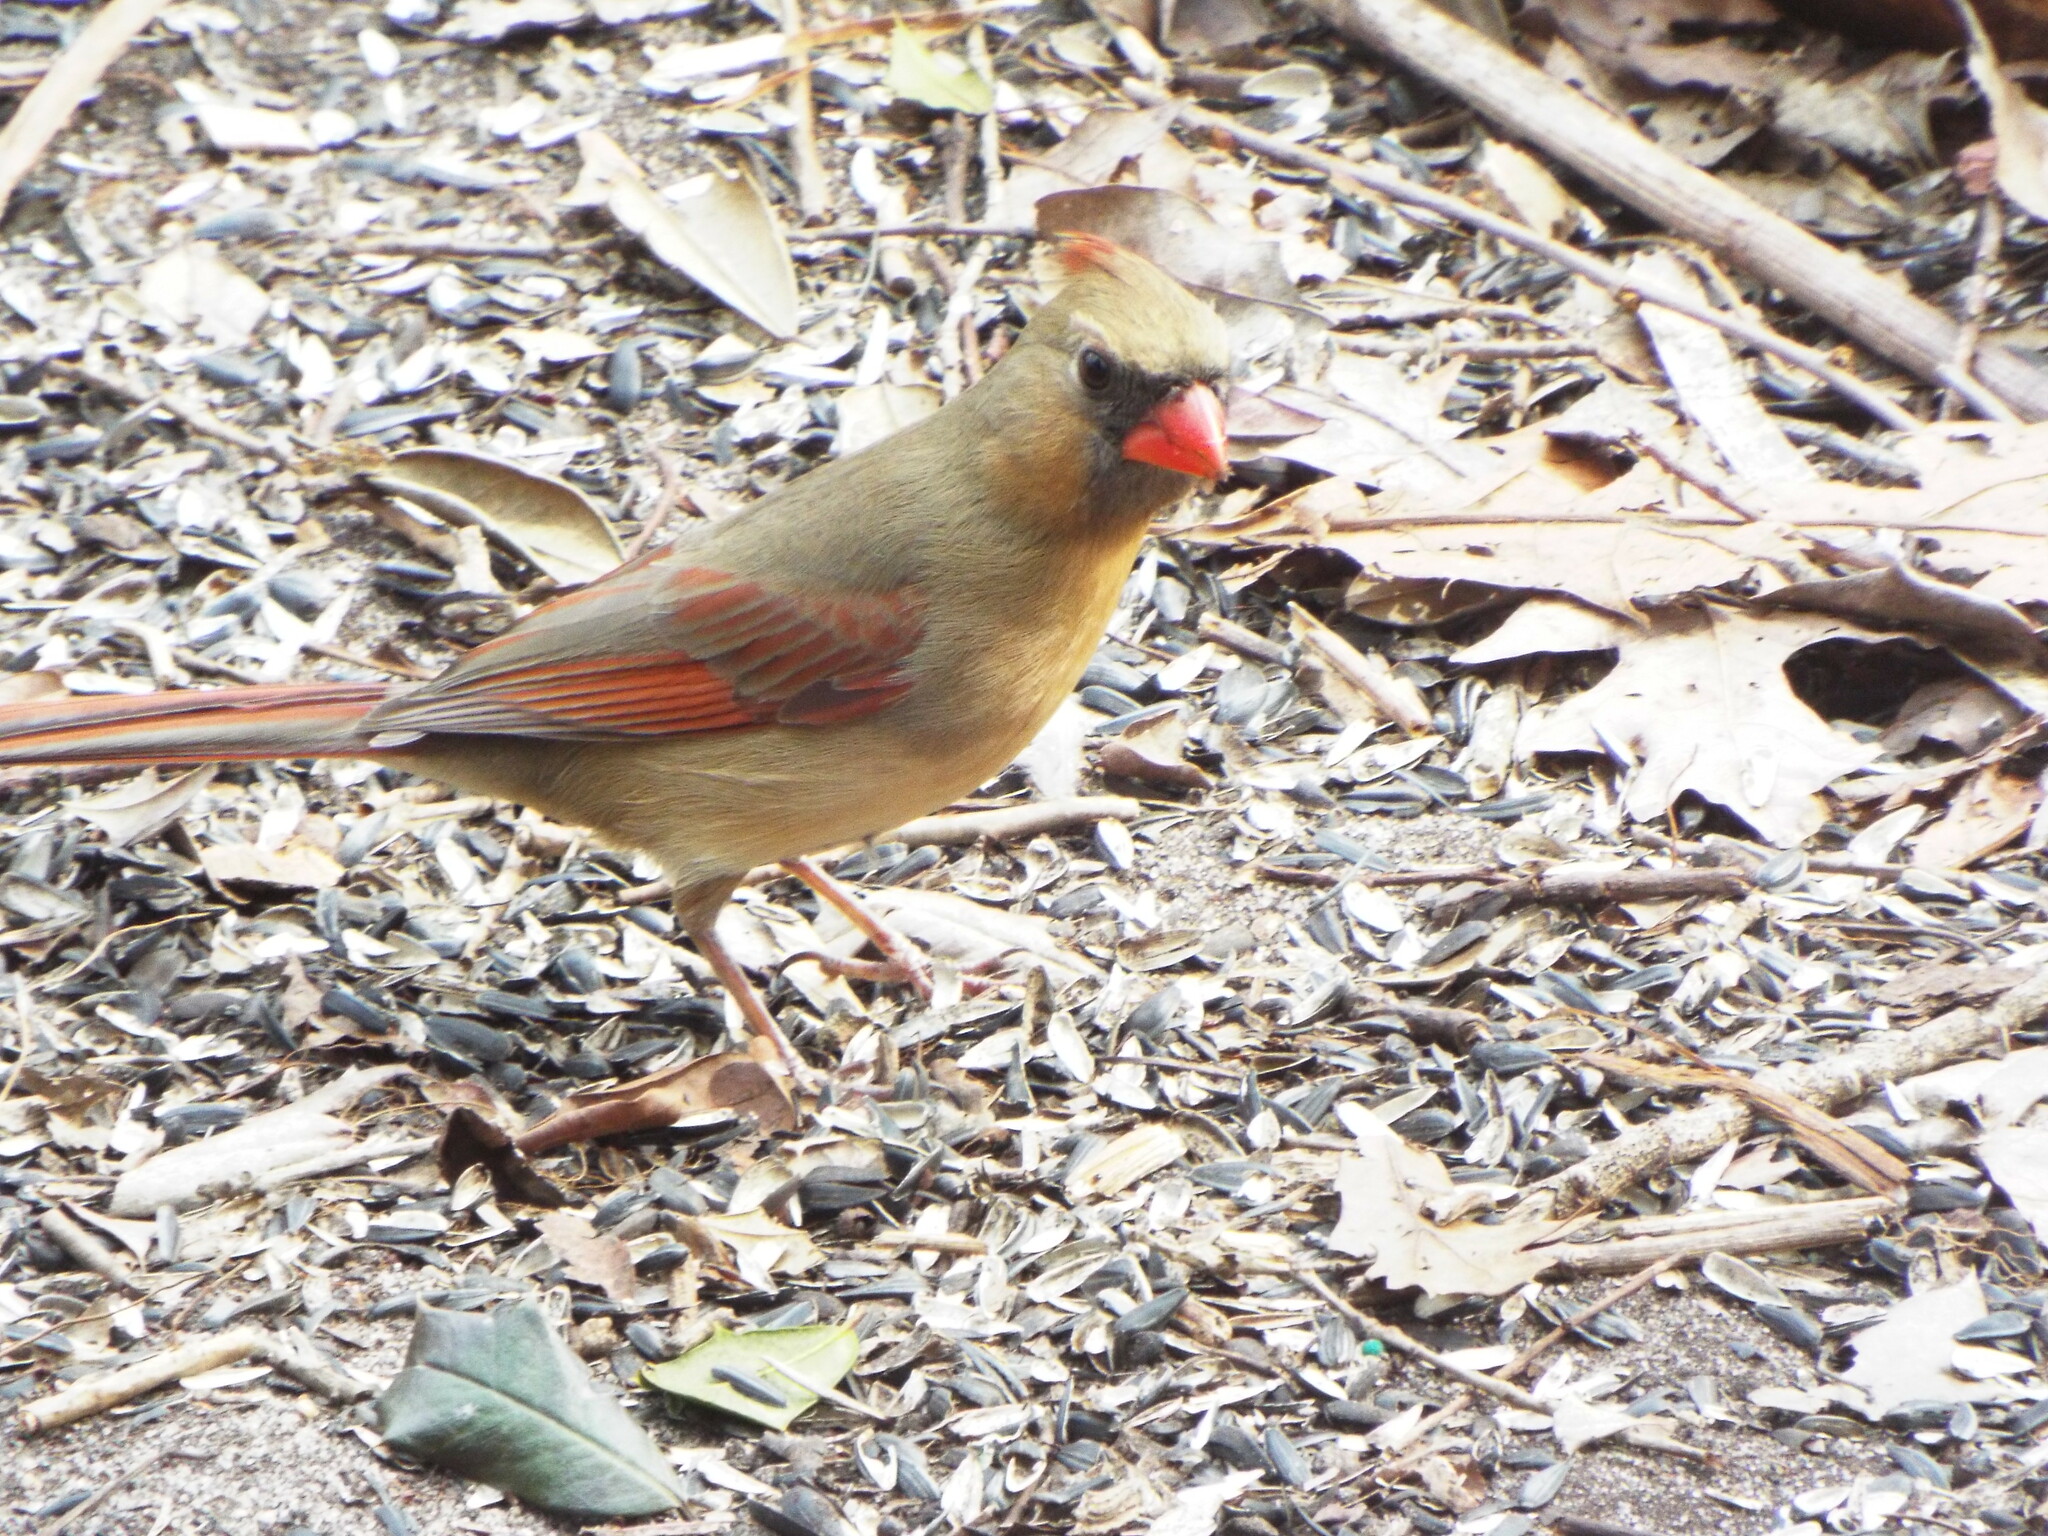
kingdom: Animalia
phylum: Chordata
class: Aves
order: Passeriformes
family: Cardinalidae
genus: Cardinalis
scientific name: Cardinalis cardinalis
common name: Northern cardinal
